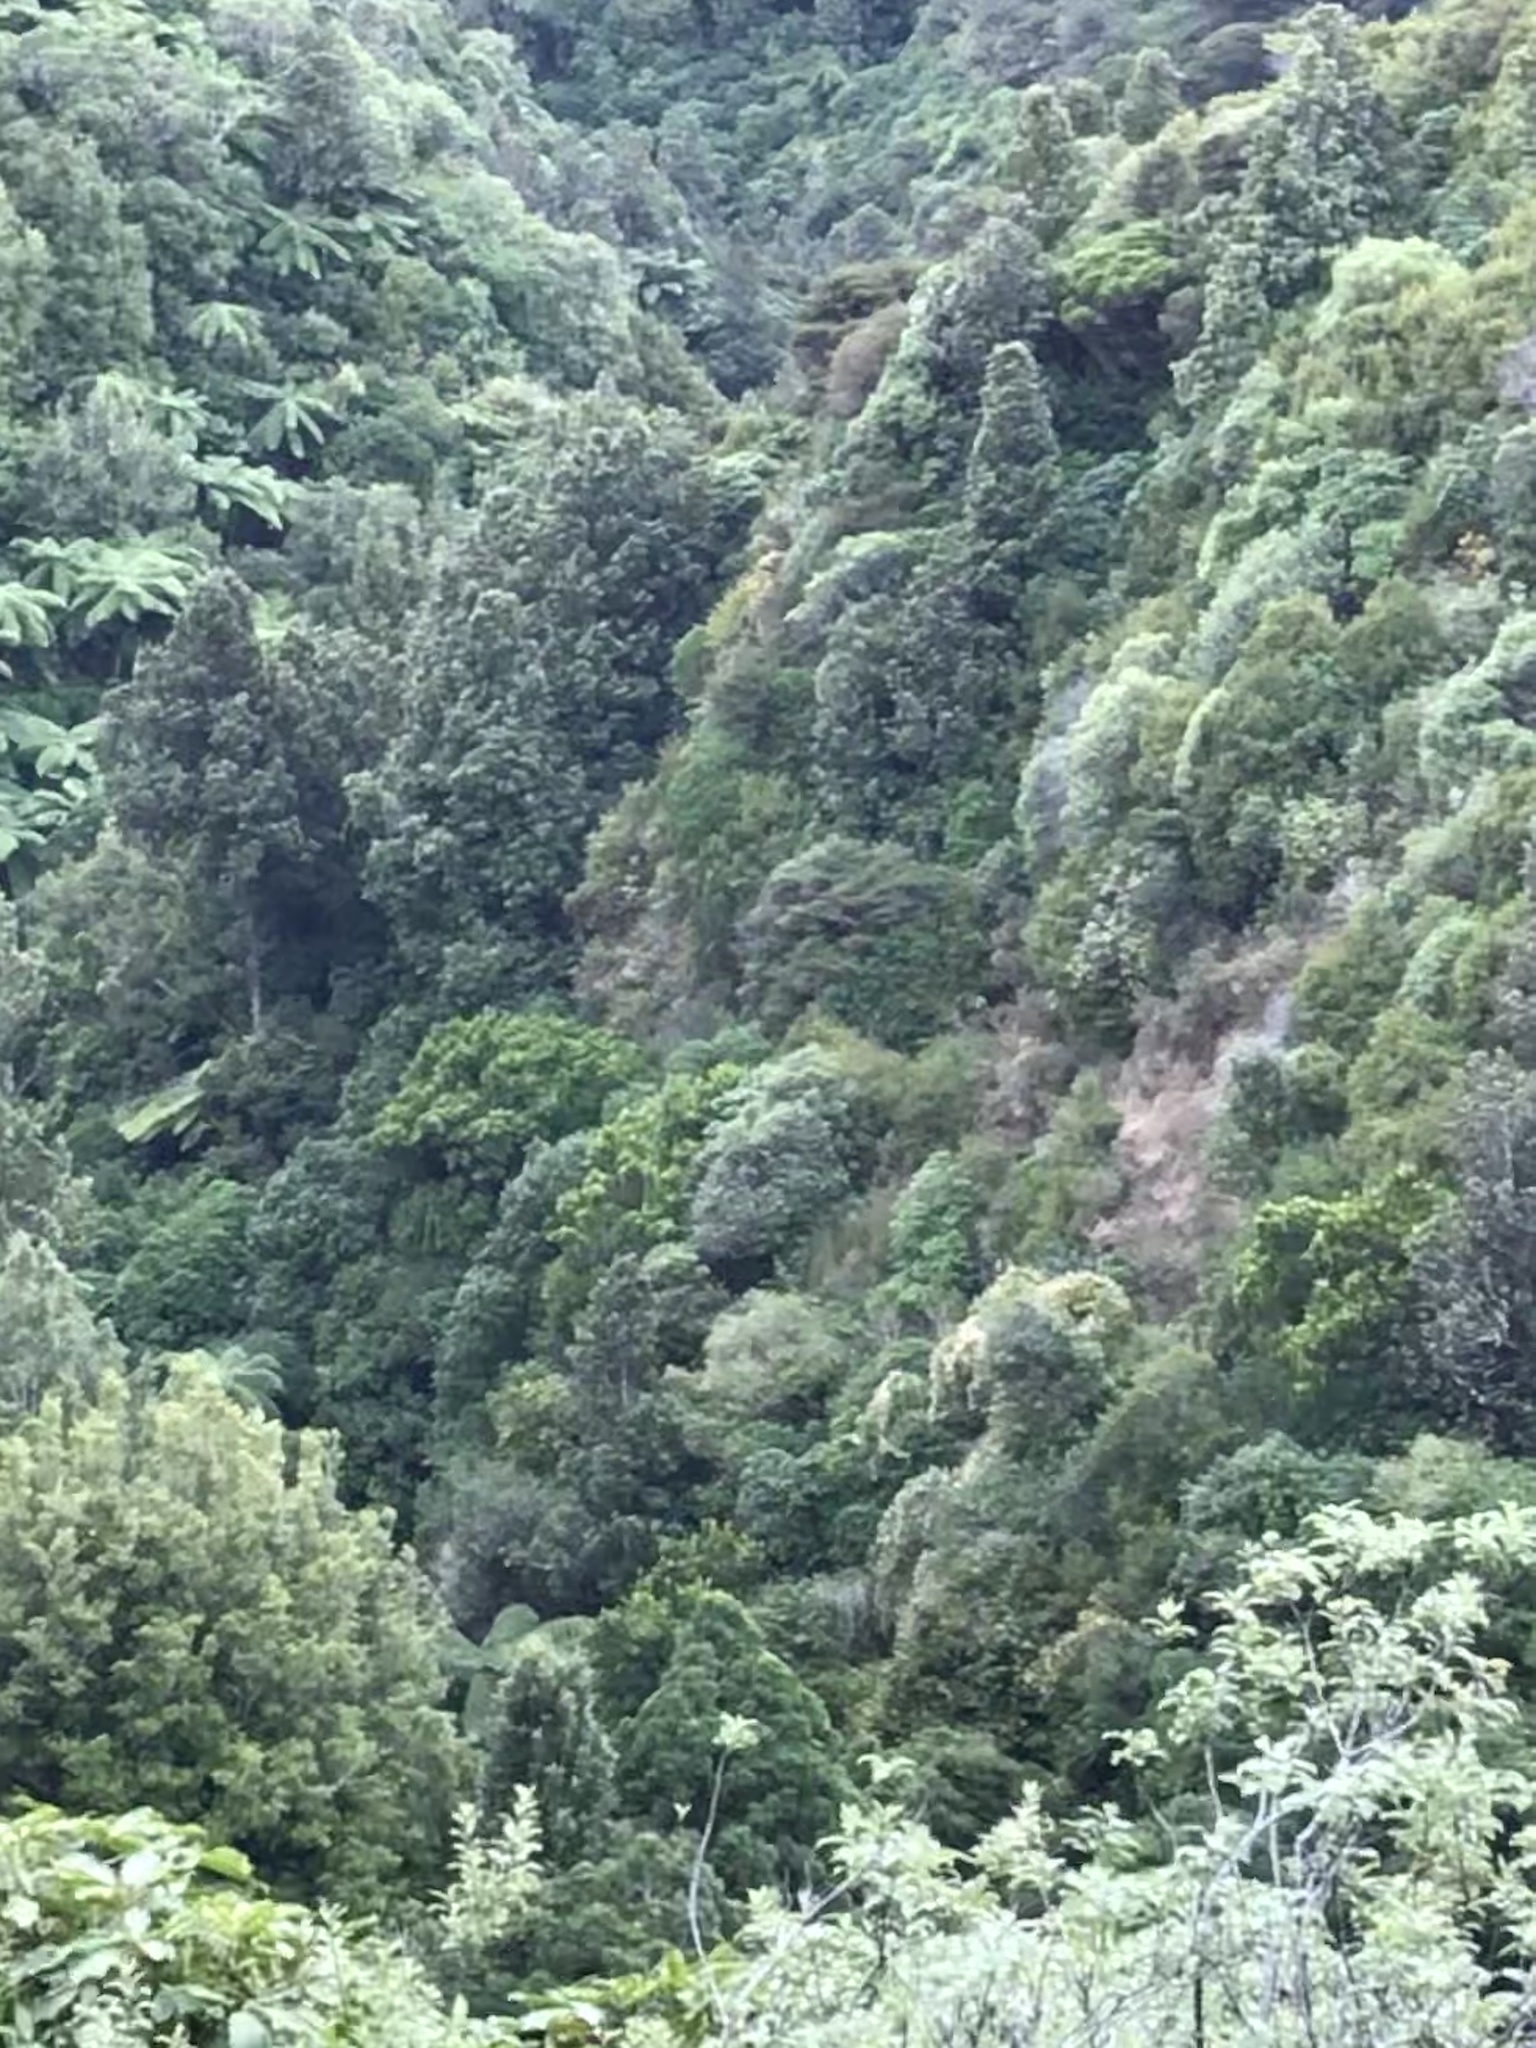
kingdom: Plantae
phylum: Tracheophyta
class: Magnoliopsida
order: Ranunculales
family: Ranunculaceae
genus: Clematis
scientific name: Clematis vitalba
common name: Evergreen clematis
